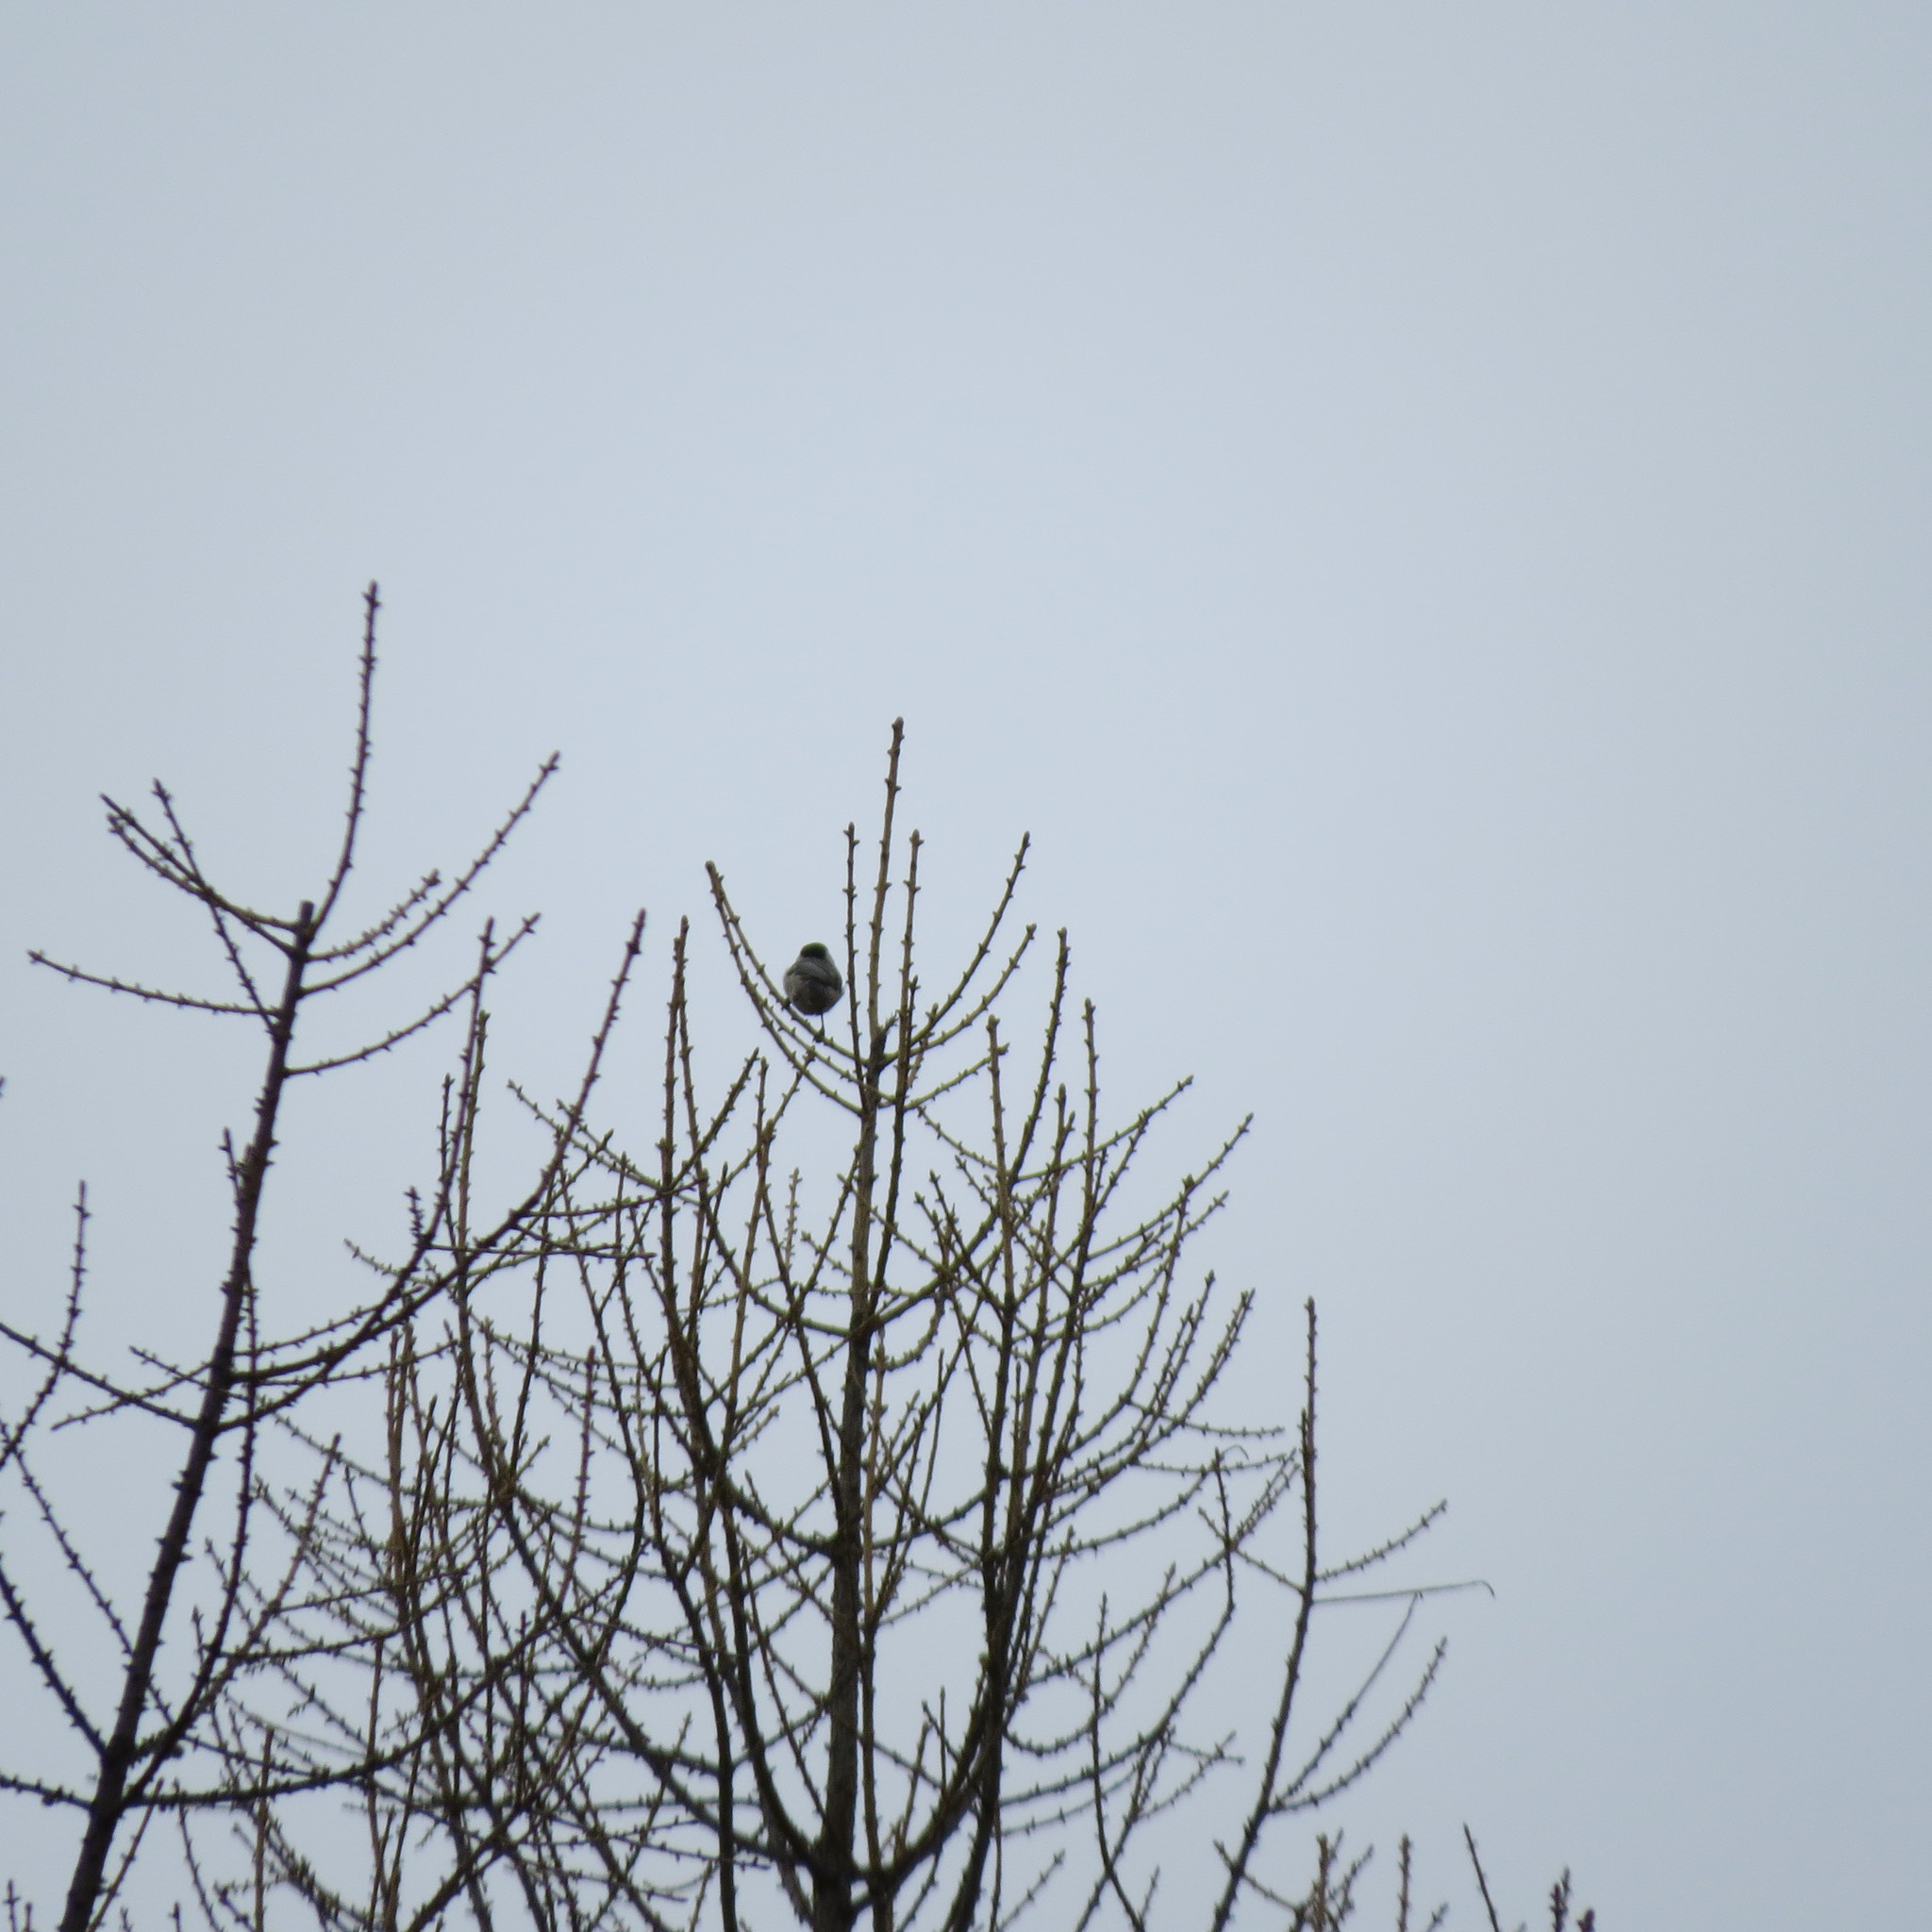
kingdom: Animalia
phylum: Chordata
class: Aves
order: Passeriformes
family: Paridae
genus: Poecile
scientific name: Poecile montanus
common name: Willow tit
